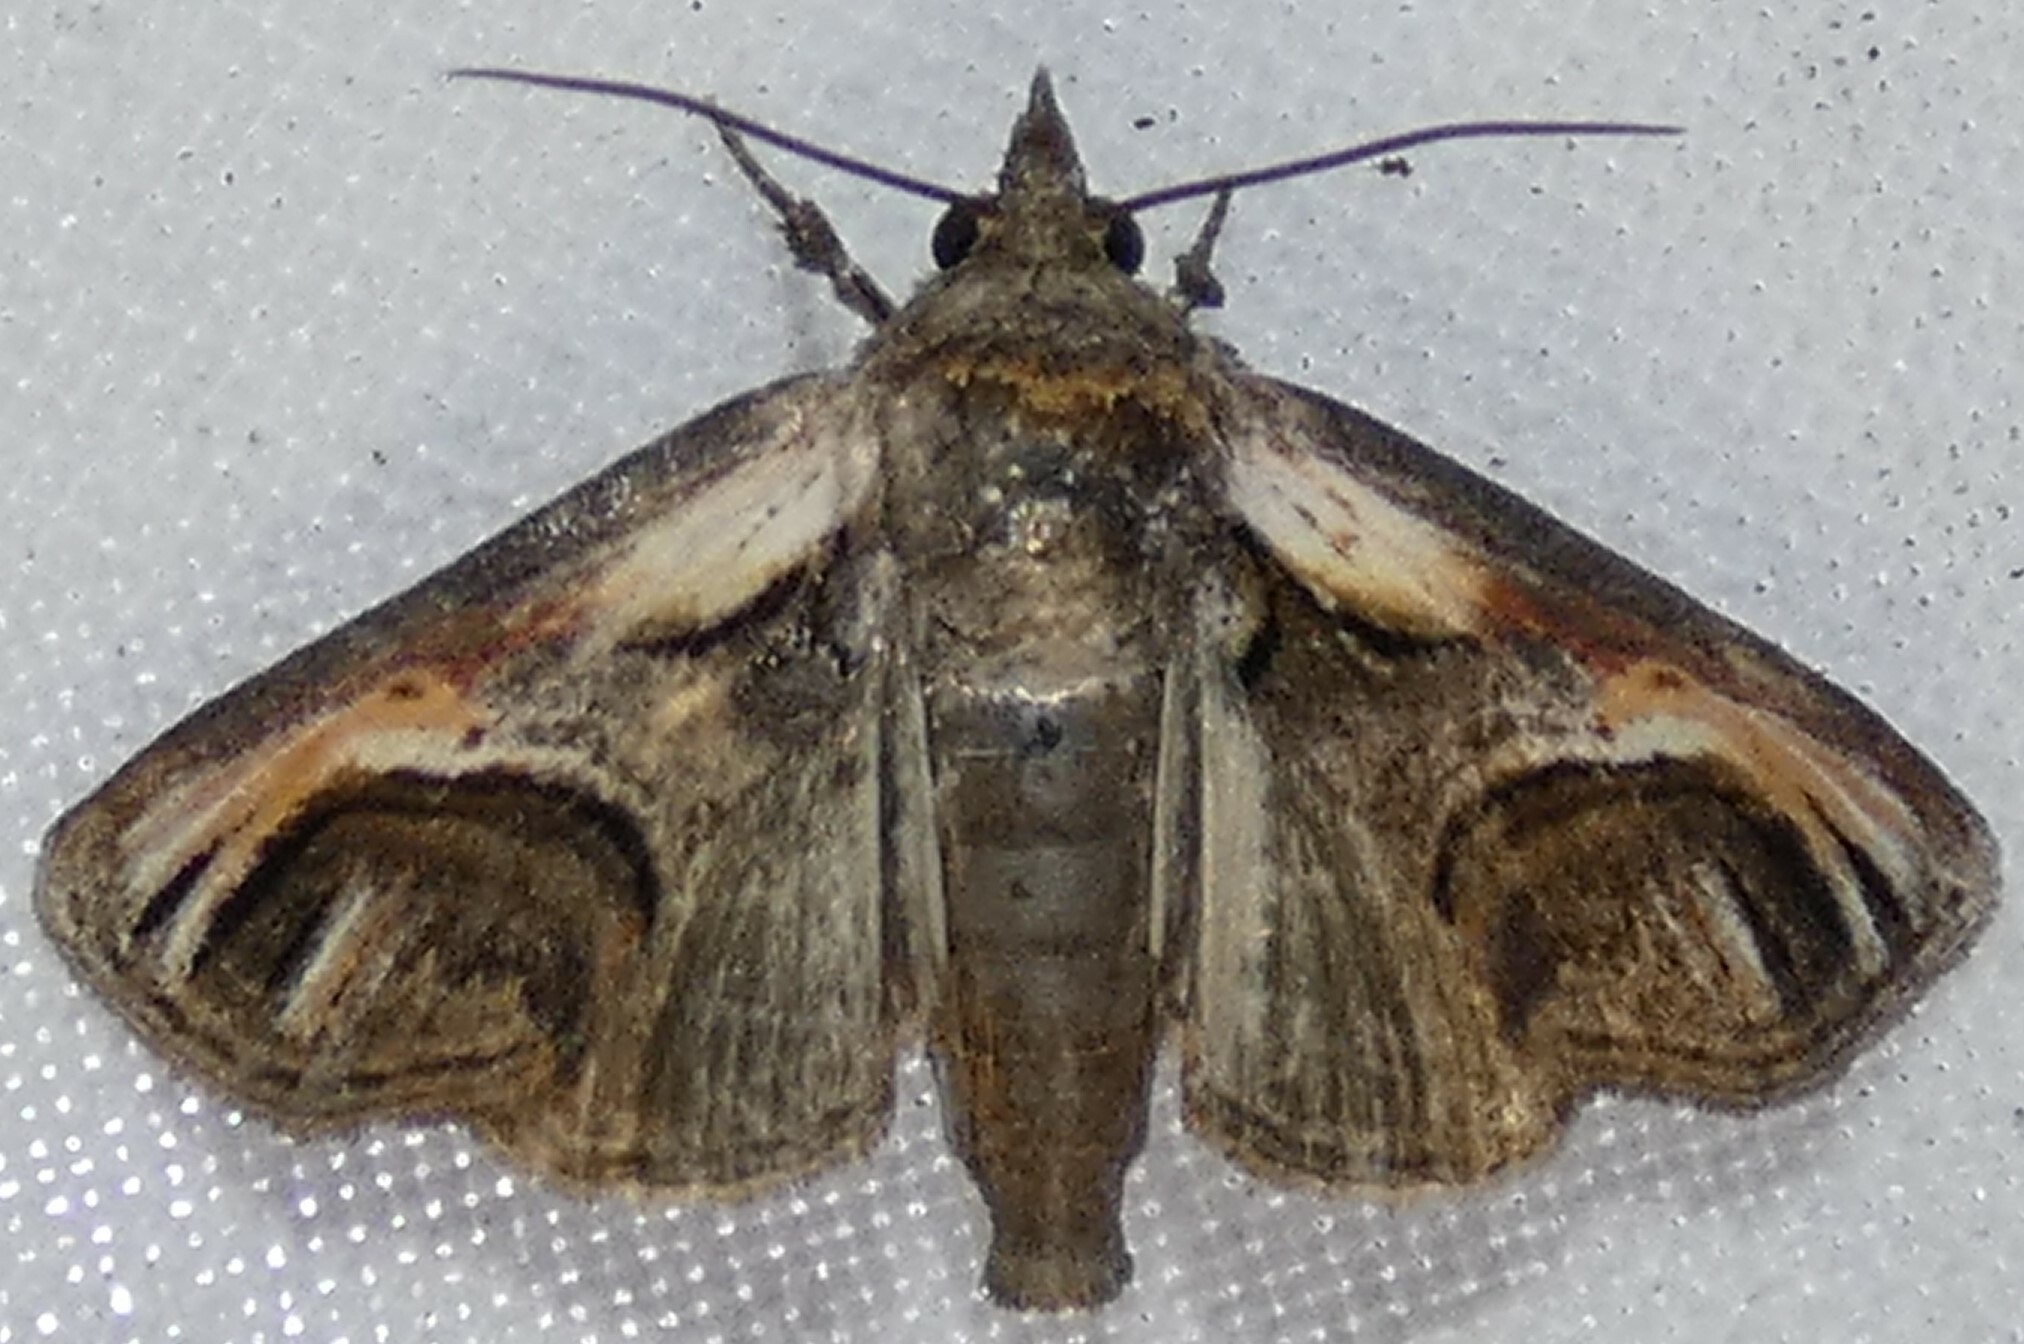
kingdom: Animalia
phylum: Arthropoda
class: Insecta
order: Lepidoptera
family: Euteliidae
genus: Paectes
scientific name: Paectes oculatrix
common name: Eyed paectes moth
